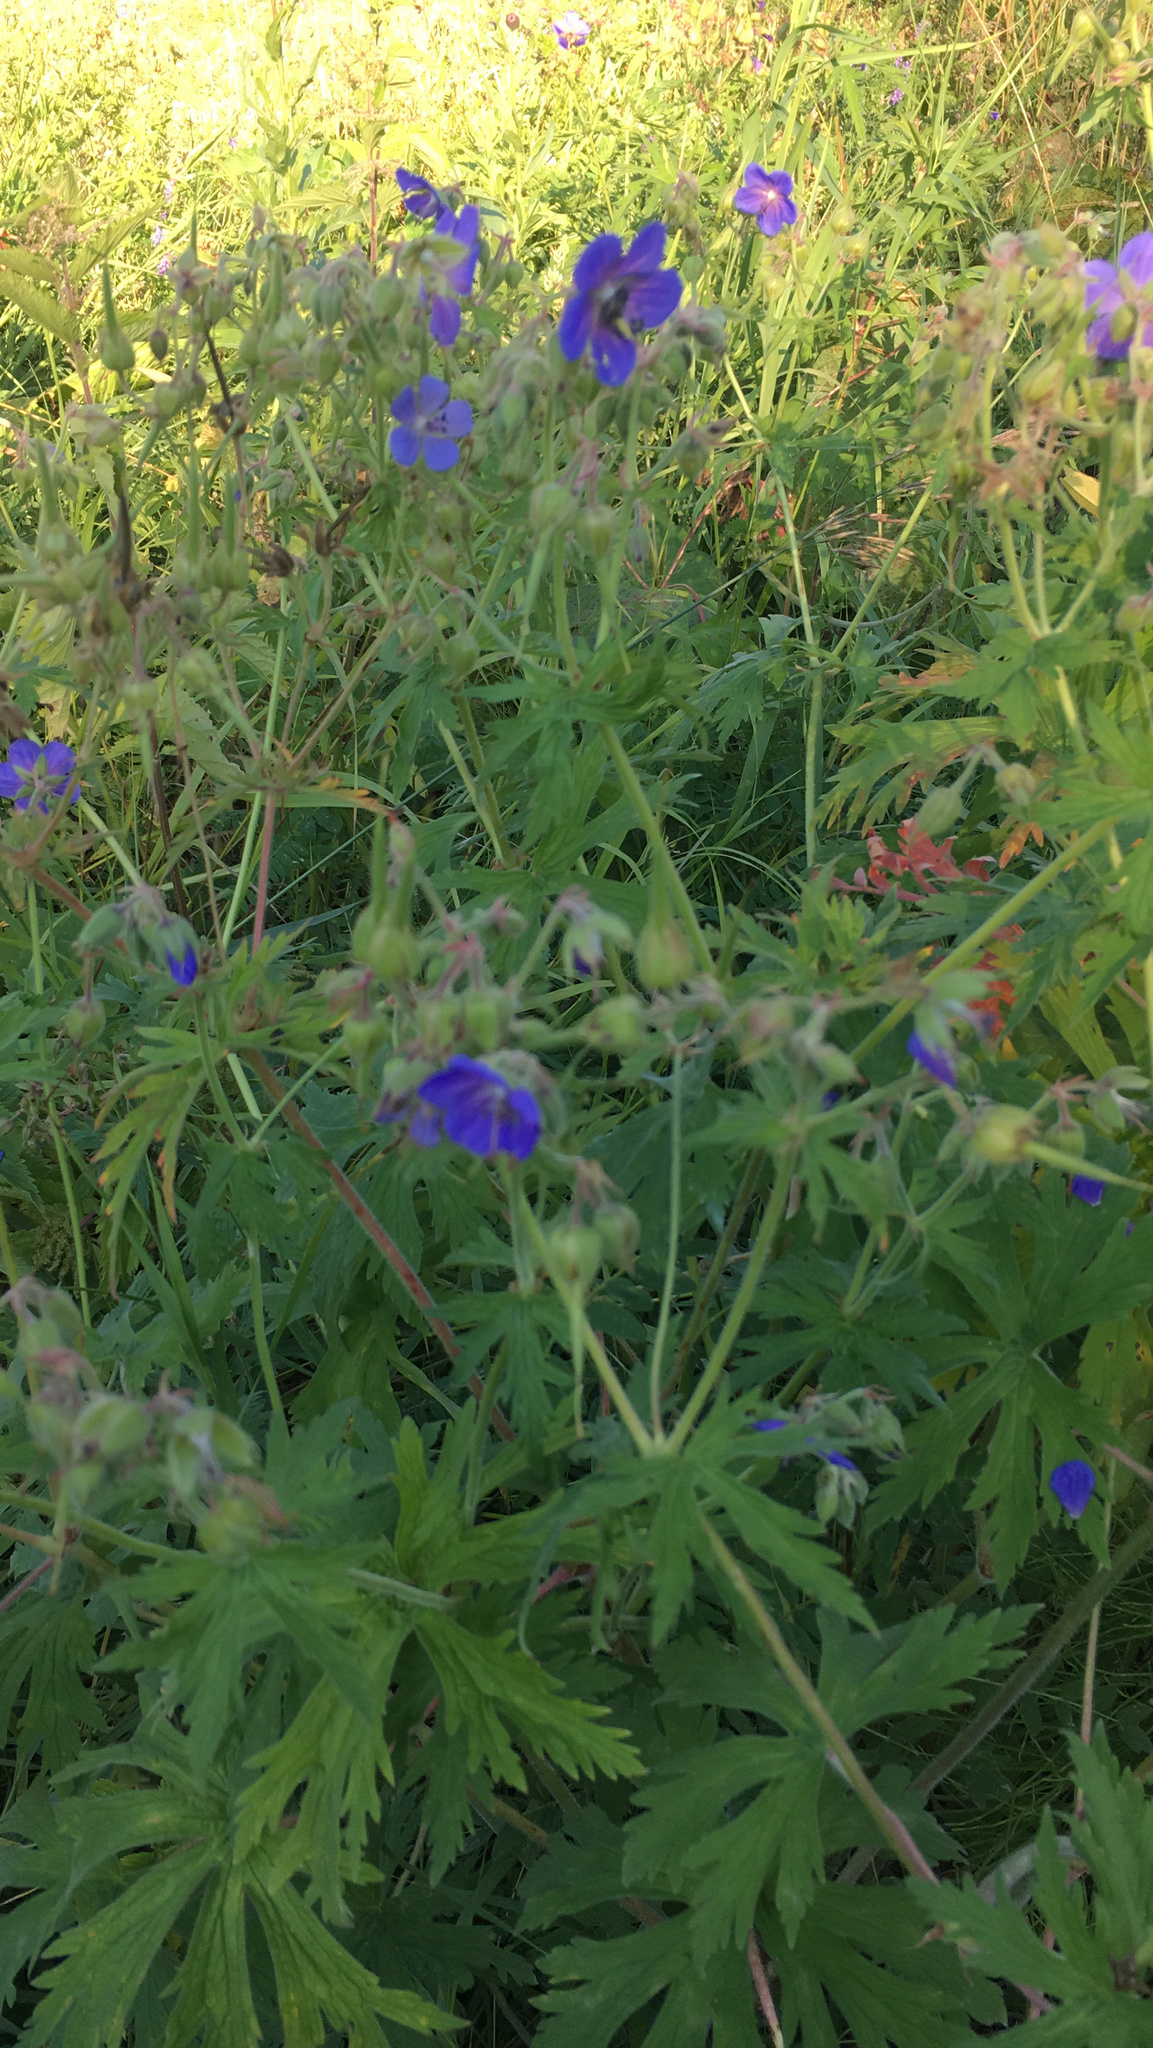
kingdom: Plantae
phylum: Tracheophyta
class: Magnoliopsida
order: Geraniales
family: Geraniaceae
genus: Geranium
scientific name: Geranium pratense
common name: Meadow crane's-bill
